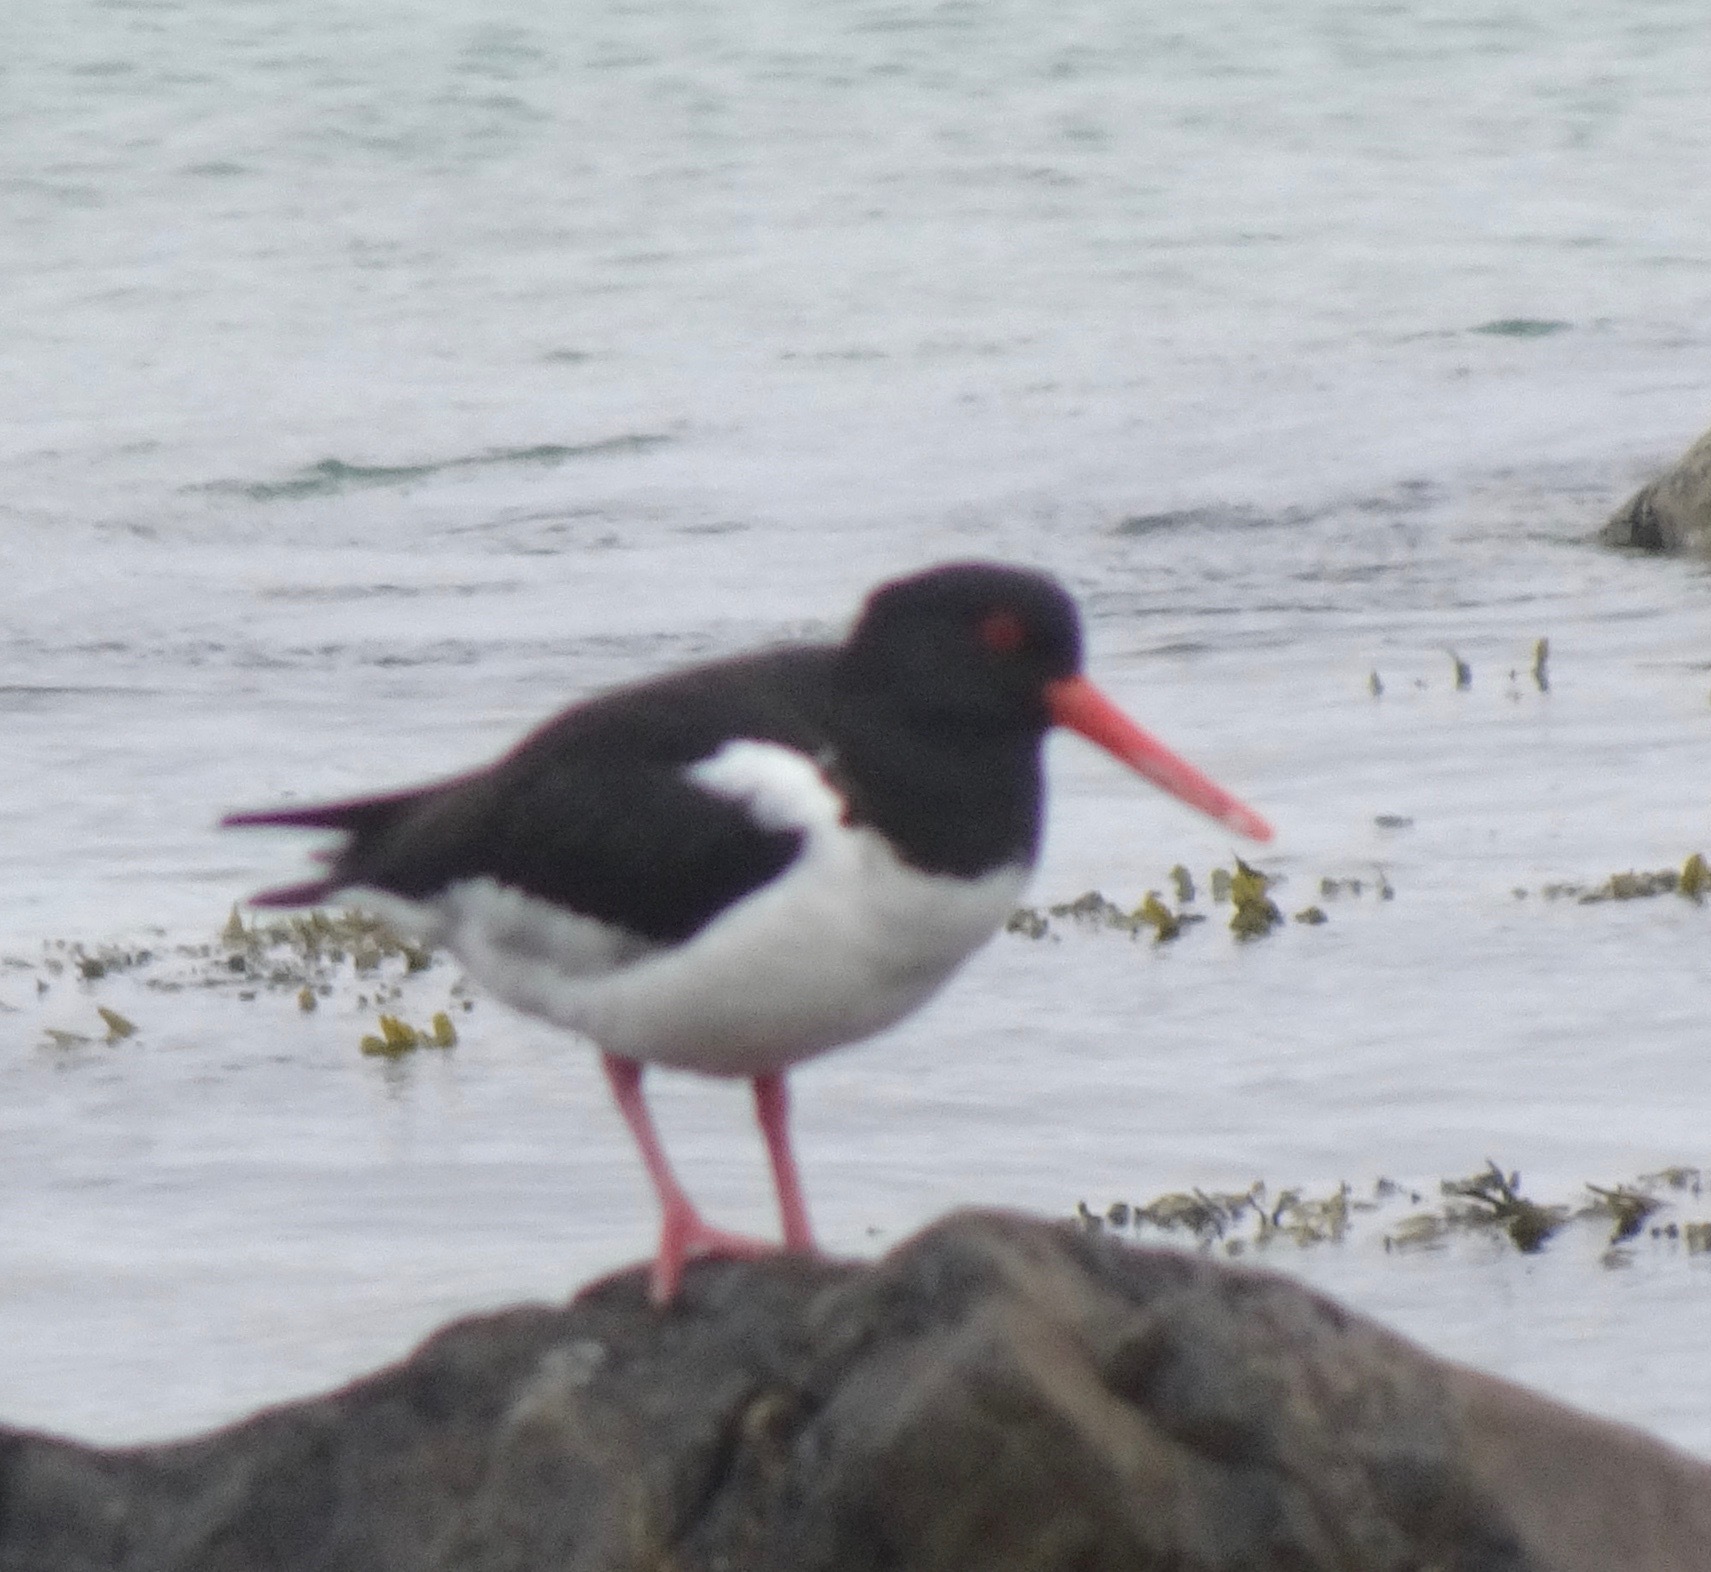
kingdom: Animalia
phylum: Chordata
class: Aves
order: Charadriiformes
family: Haematopodidae
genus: Haematopus
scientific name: Haematopus ostralegus
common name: Eurasian oystercatcher
